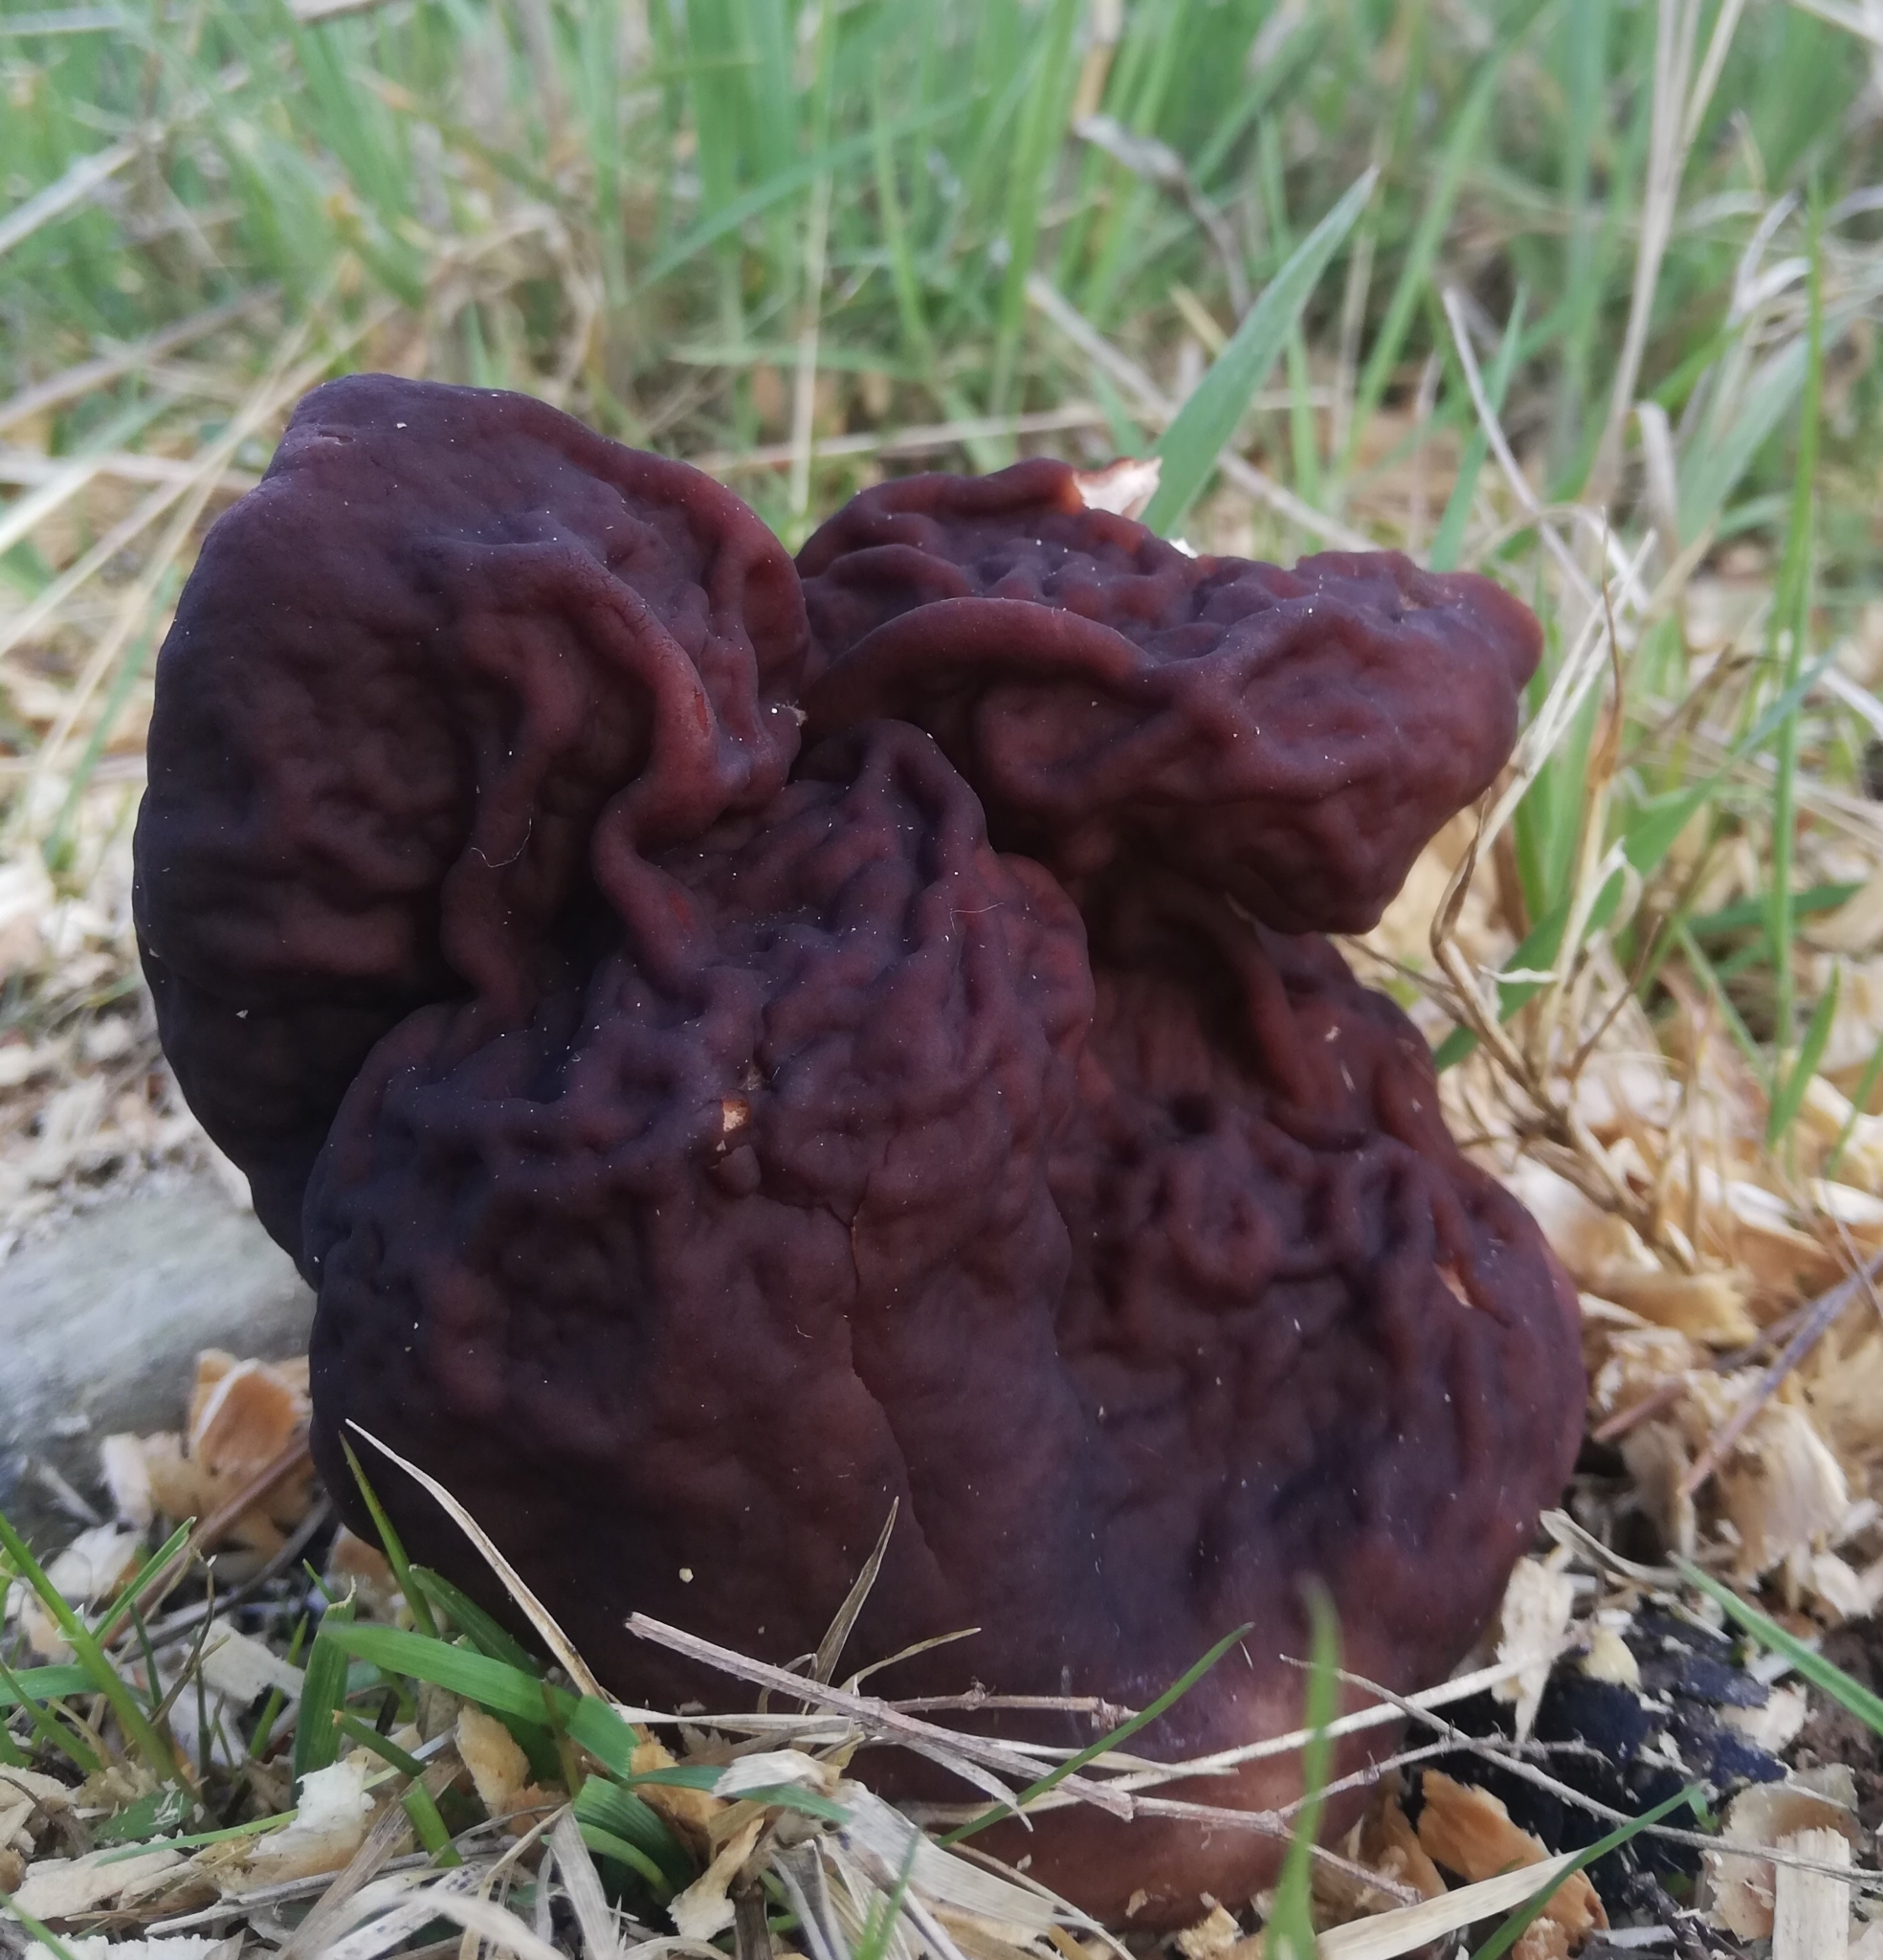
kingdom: Fungi
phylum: Ascomycota
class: Pezizomycetes
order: Pezizales
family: Discinaceae
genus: Gyromitra
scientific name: Gyromitra esculenta
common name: False morel
